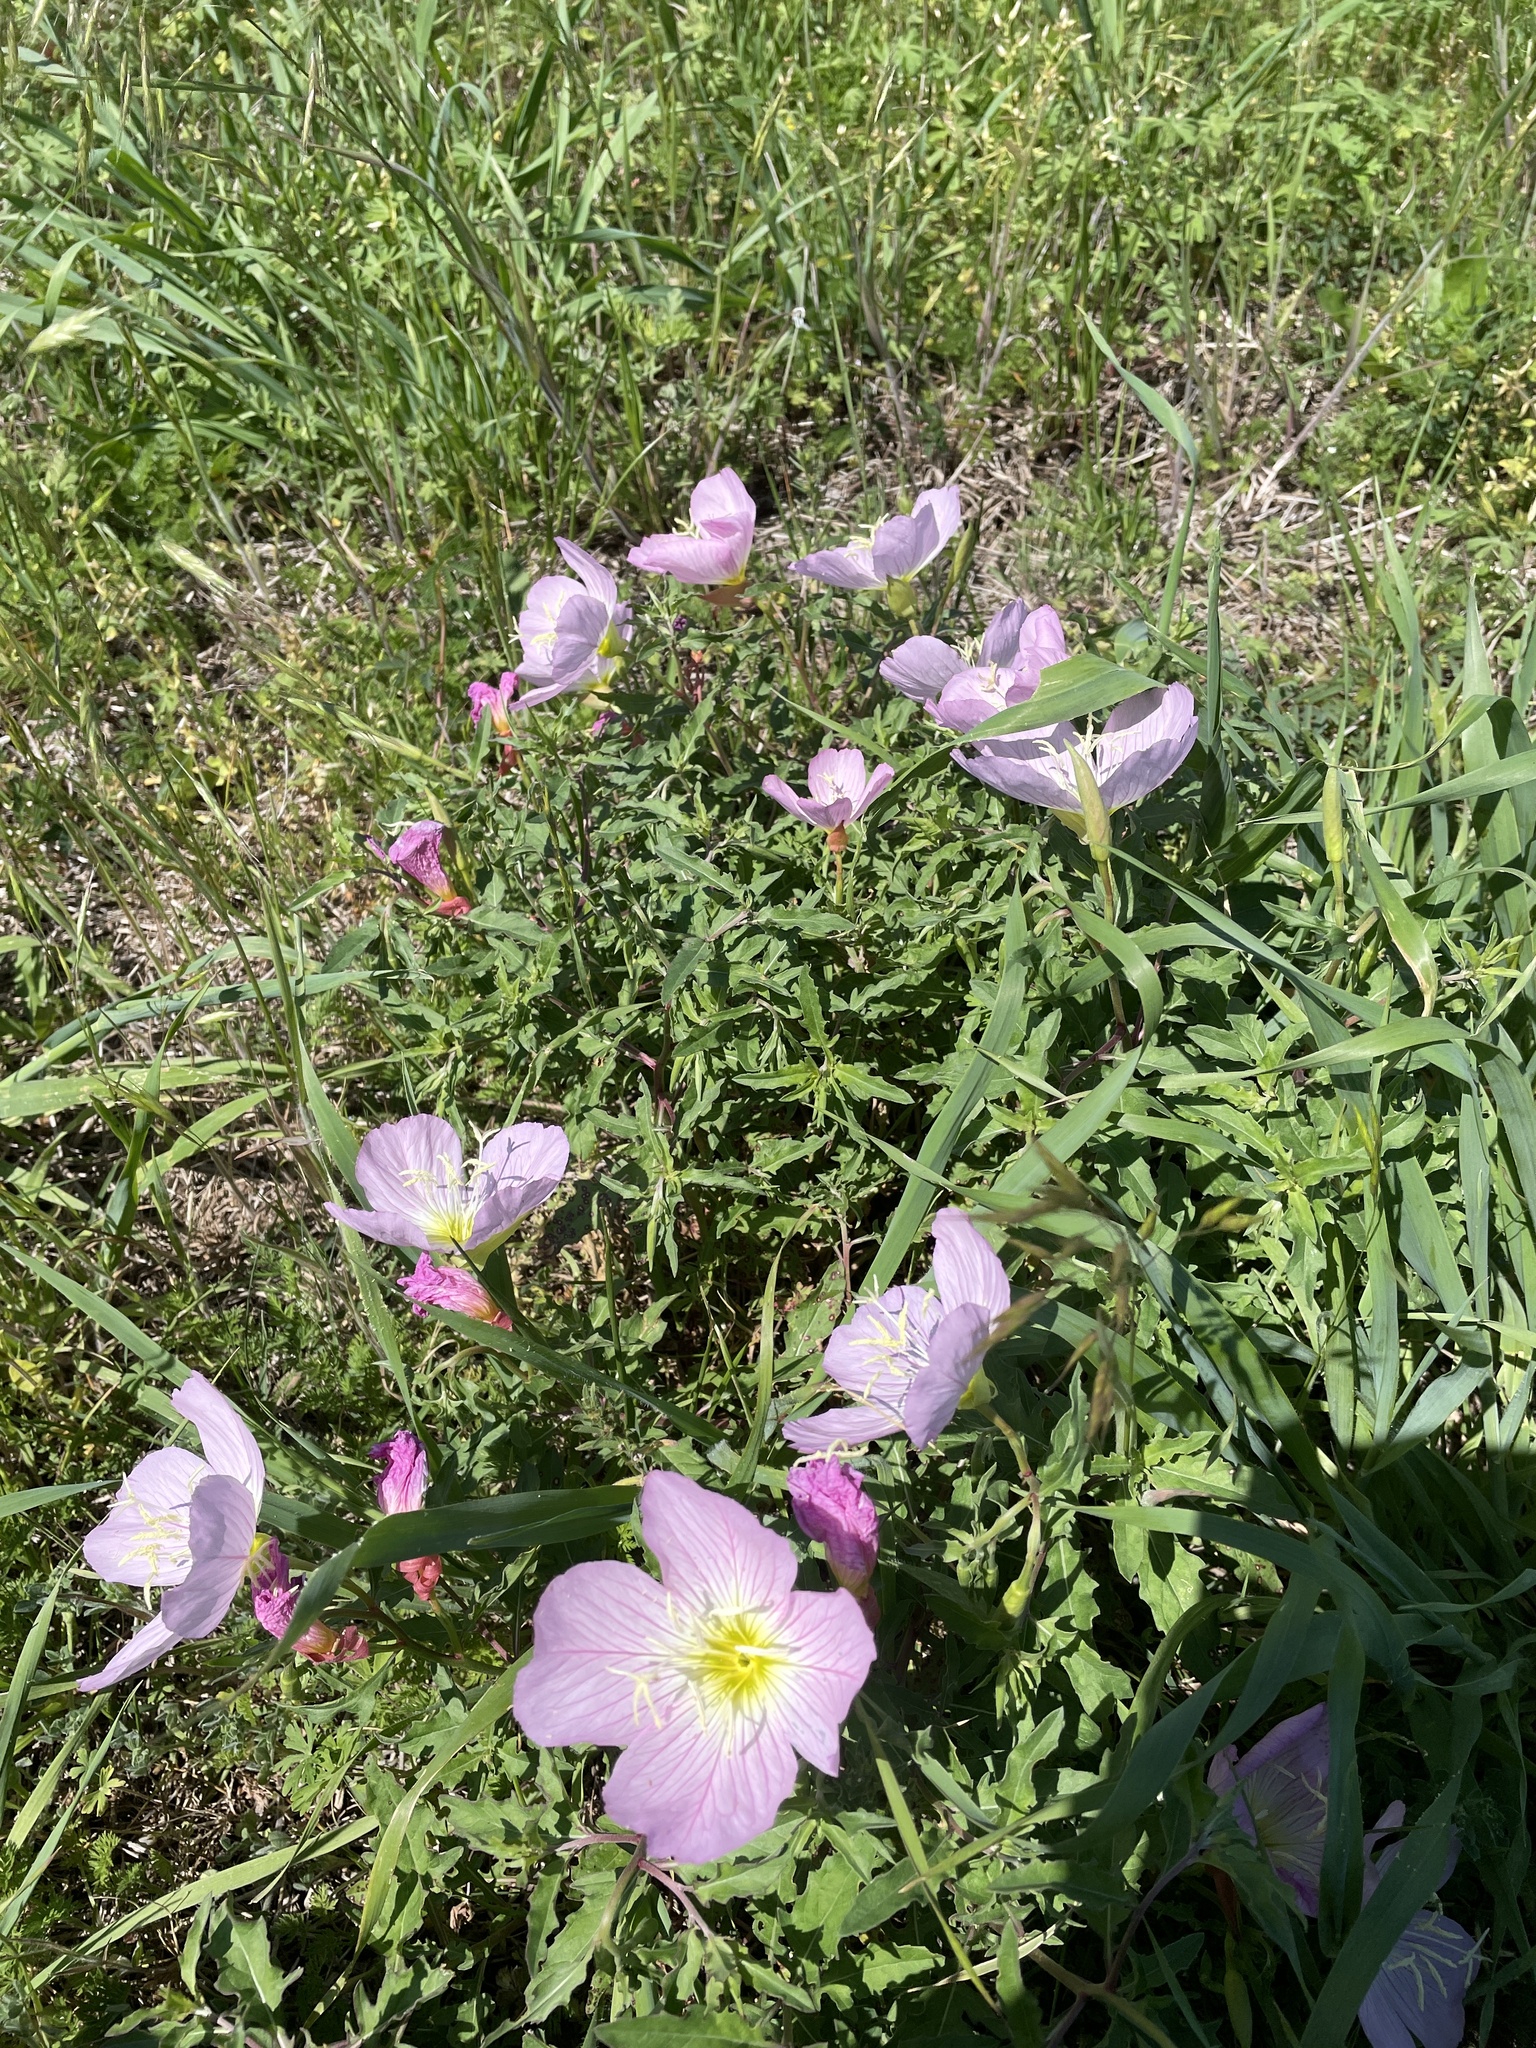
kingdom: Plantae
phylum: Tracheophyta
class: Magnoliopsida
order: Myrtales
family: Onagraceae
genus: Oenothera
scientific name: Oenothera speciosa
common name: White evening-primrose
